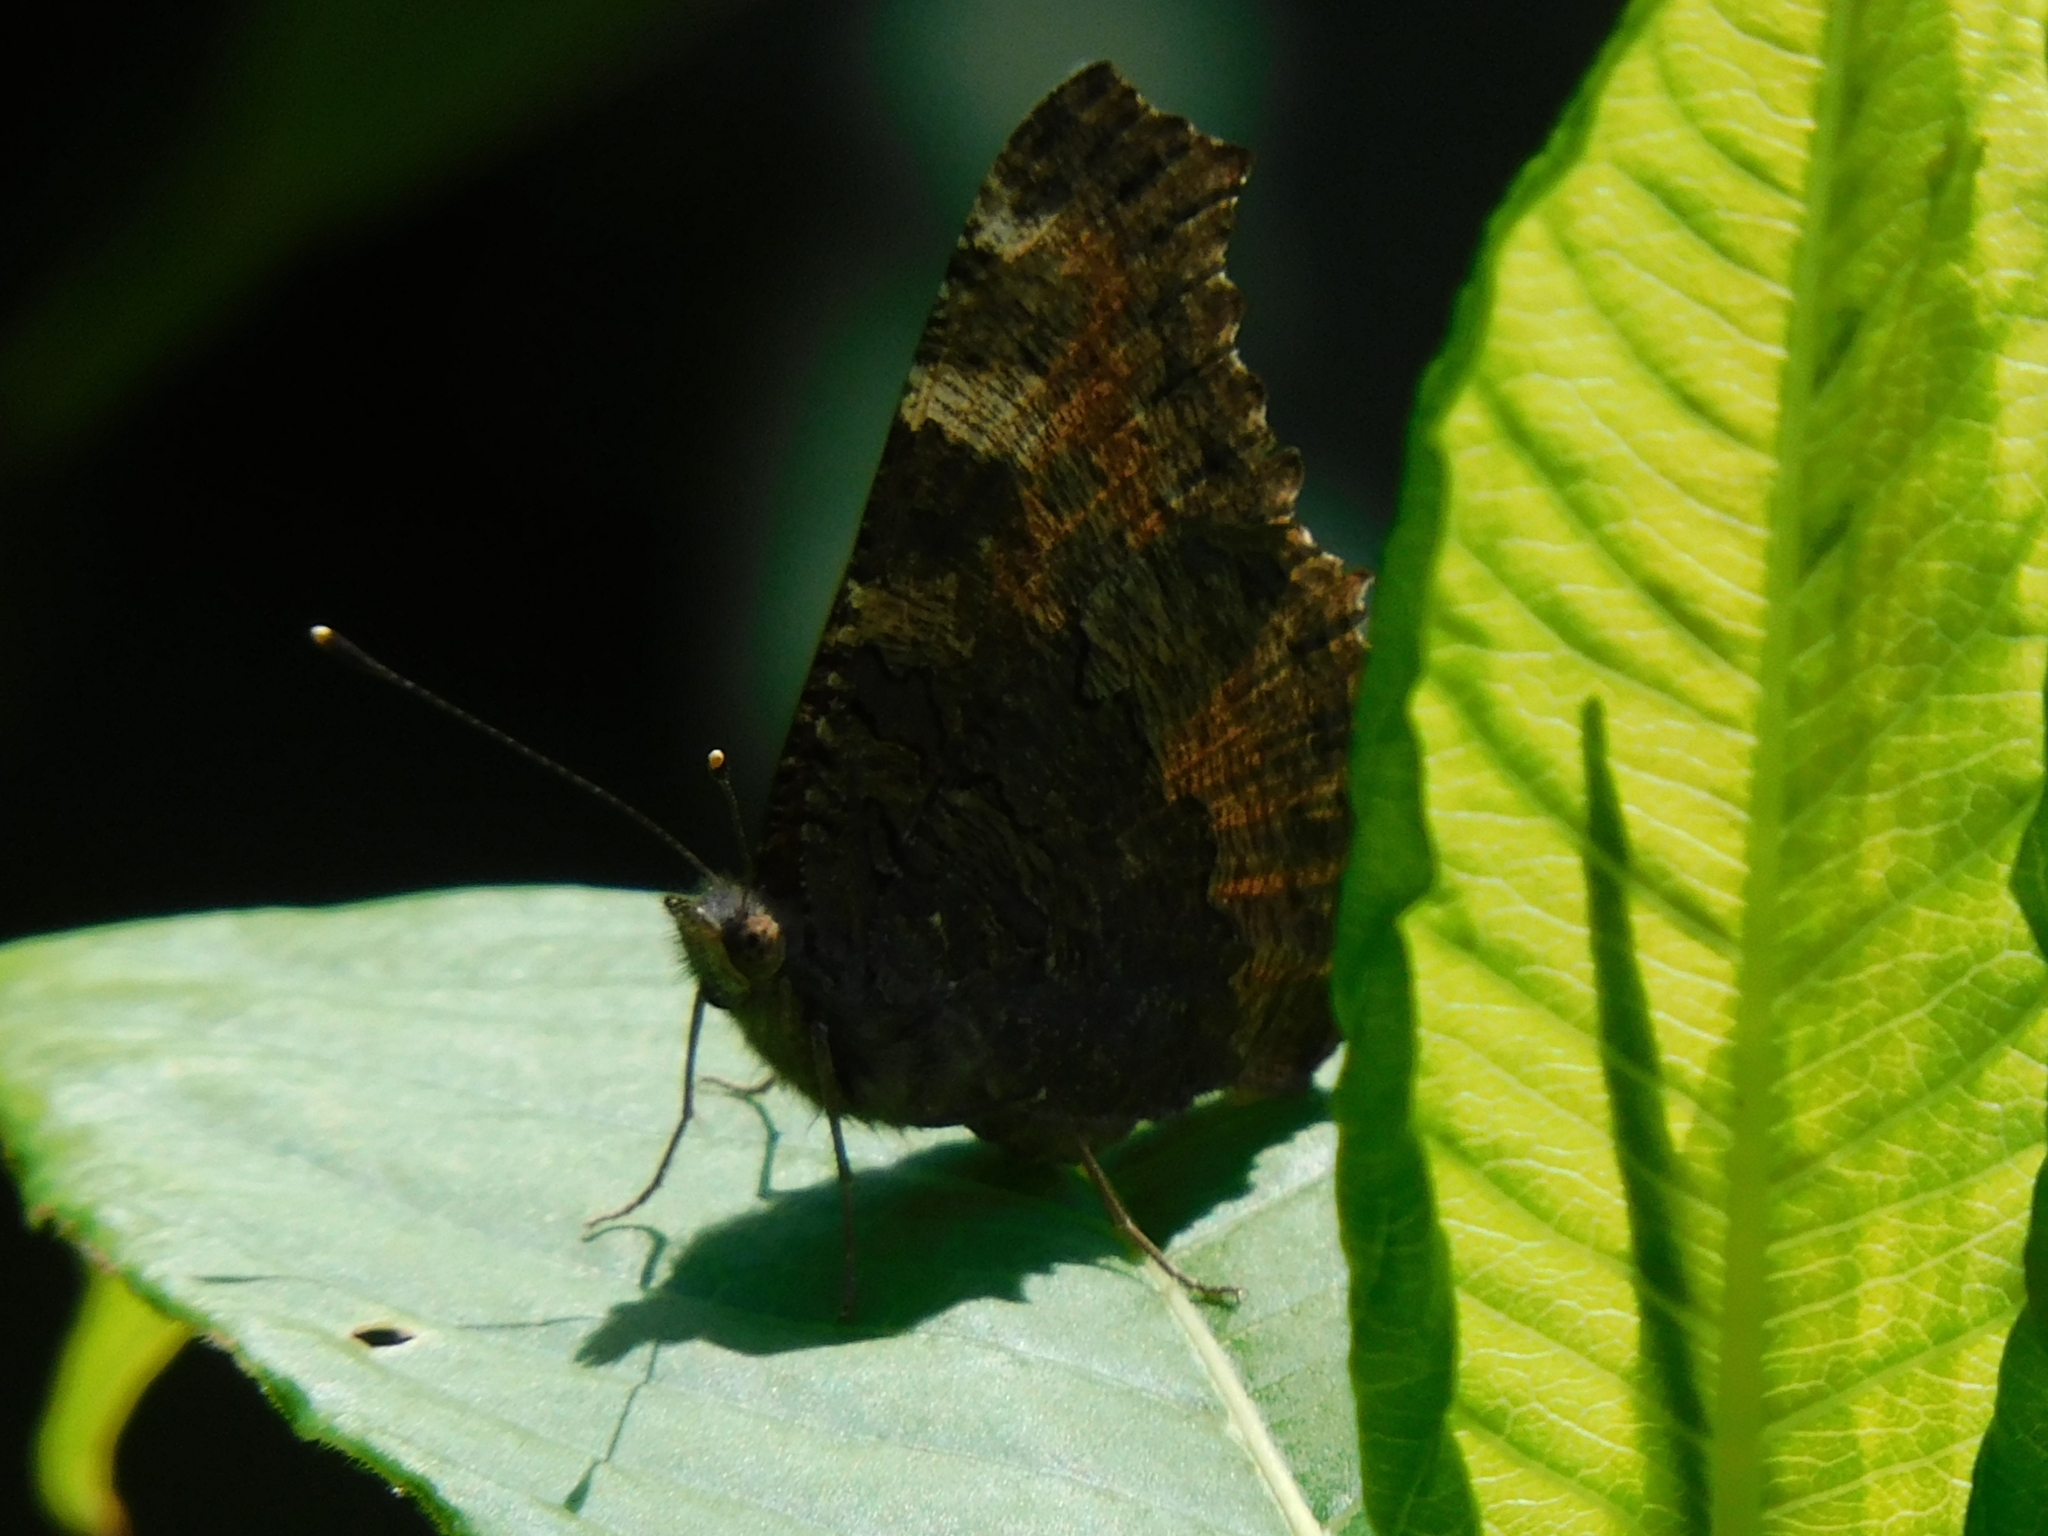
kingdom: Animalia
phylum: Arthropoda
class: Insecta
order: Lepidoptera
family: Nymphalidae
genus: Aglais
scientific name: Aglais caschmirensis
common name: Indian tortoiseshell
